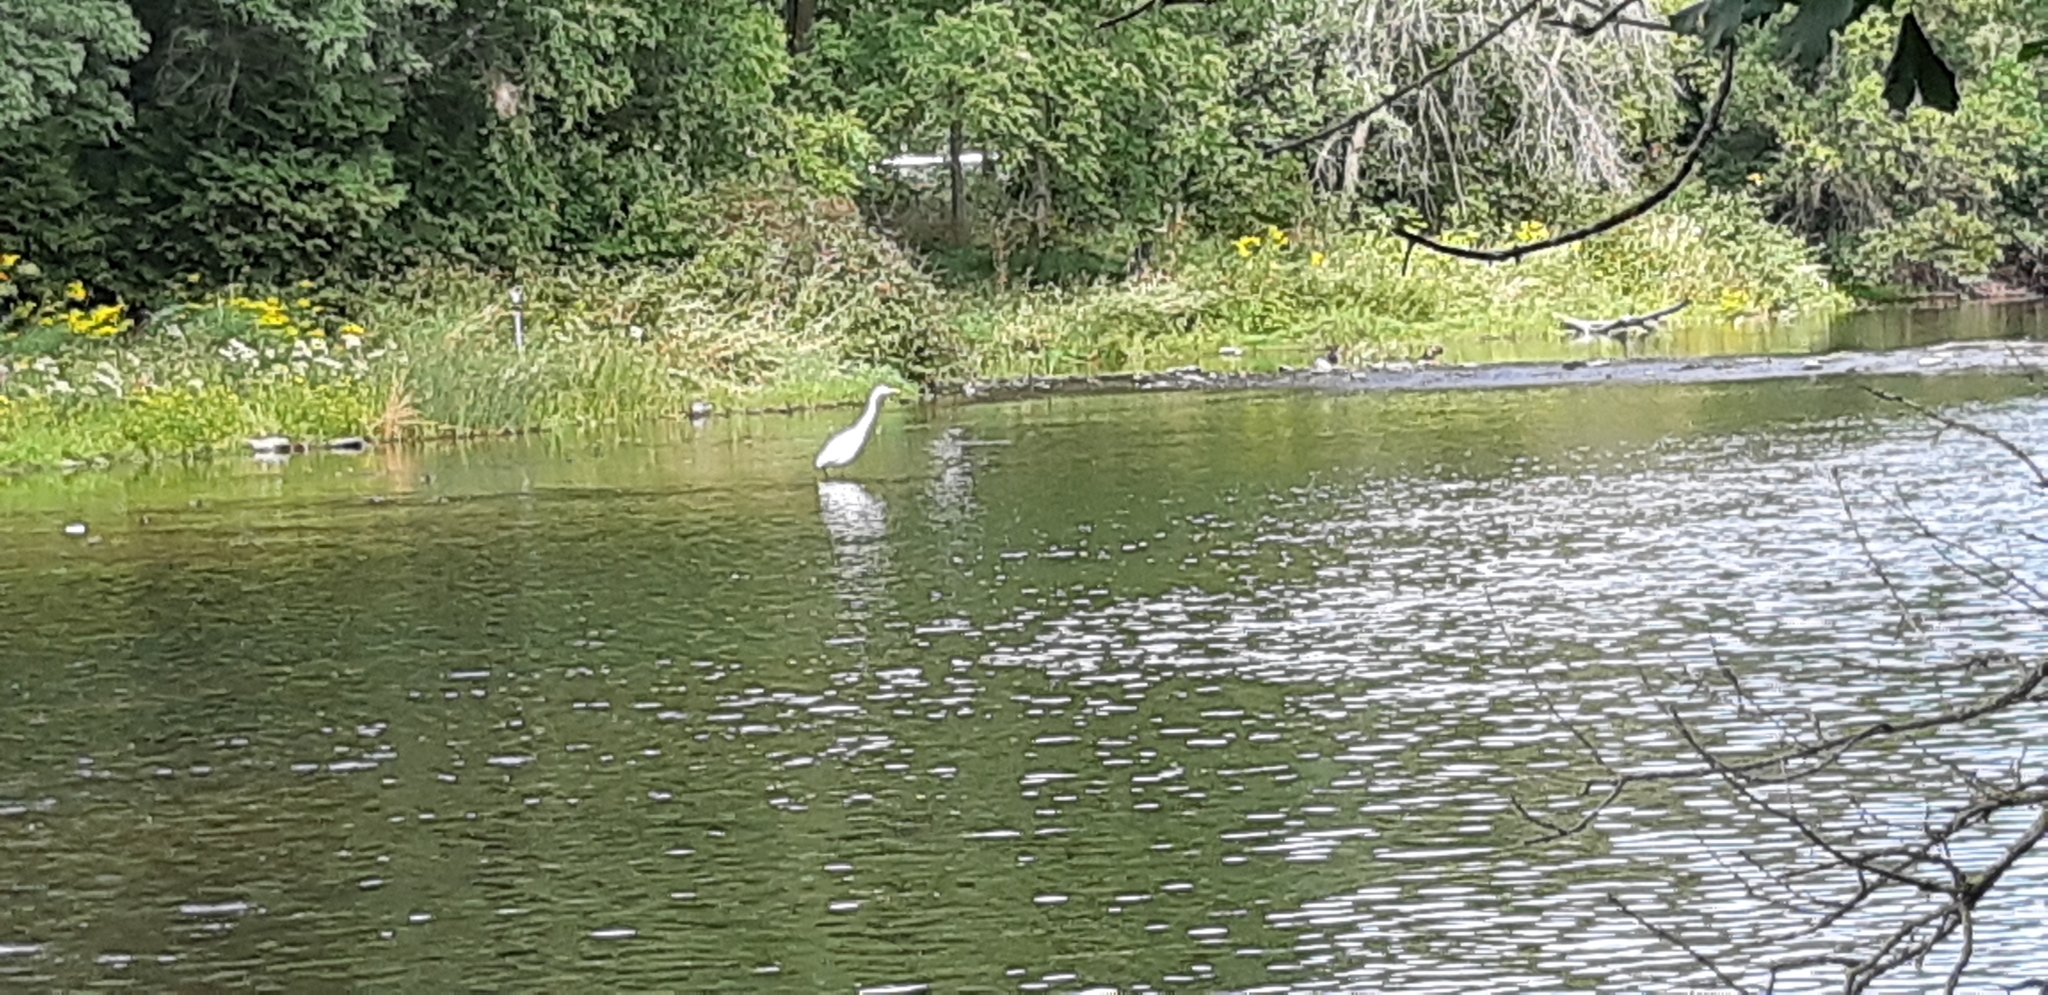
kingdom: Animalia
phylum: Chordata
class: Aves
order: Pelecaniformes
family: Ardeidae
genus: Ardea
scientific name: Ardea alba
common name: Great egret
